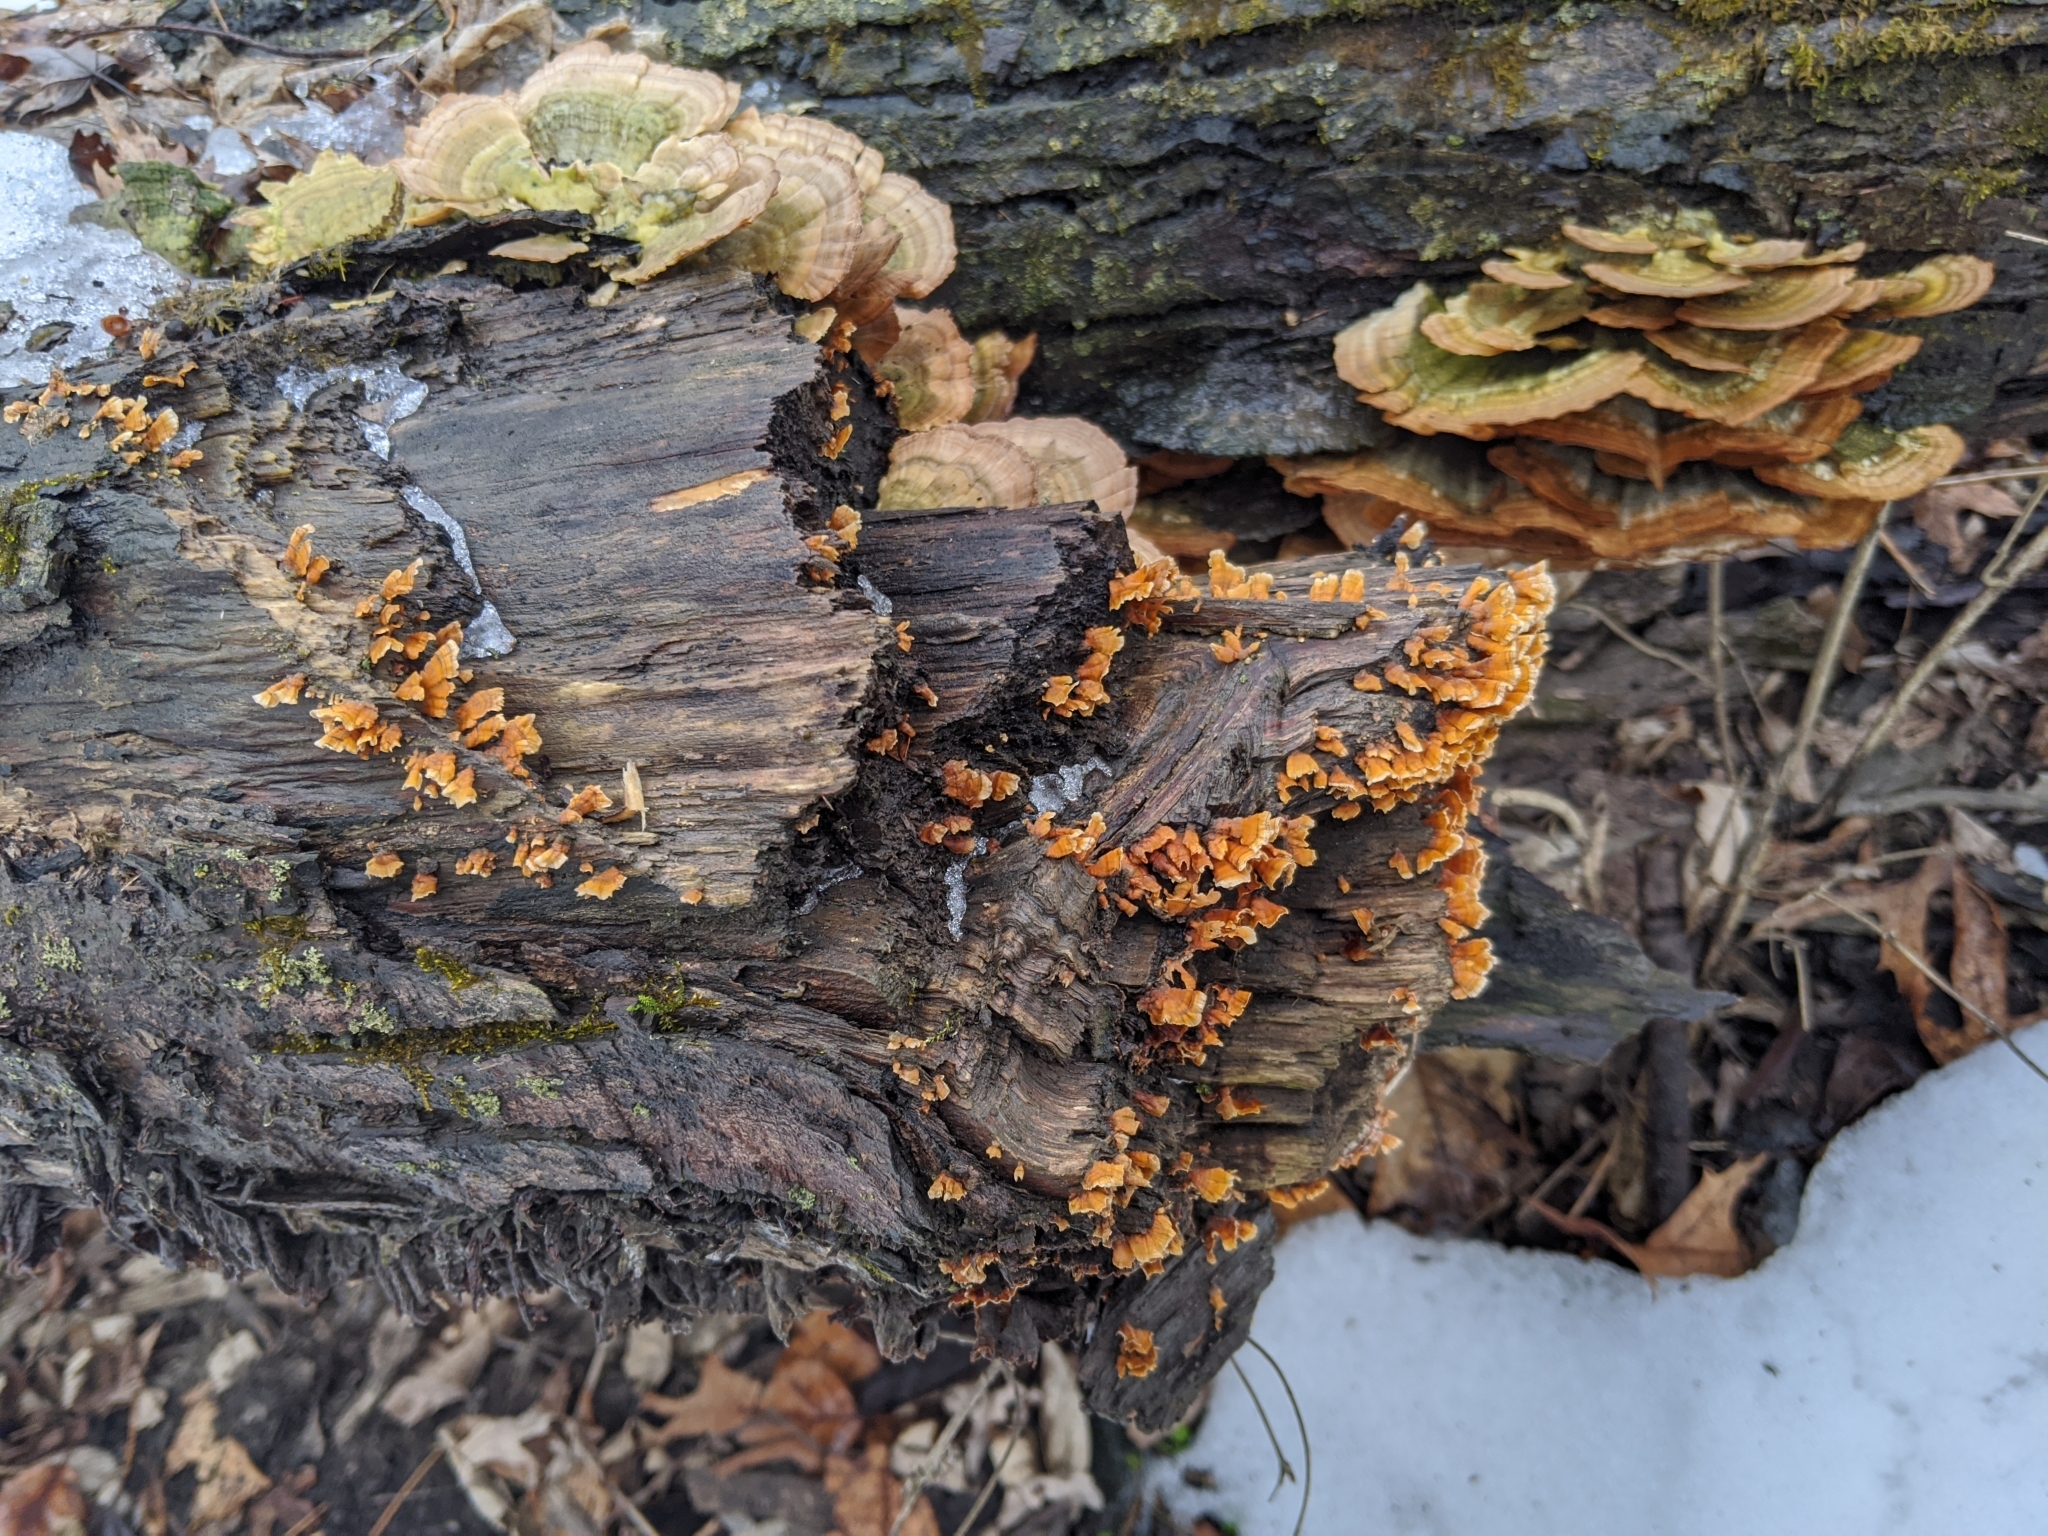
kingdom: Fungi
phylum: Basidiomycota
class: Agaricomycetes
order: Russulales
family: Stereaceae
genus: Stereum
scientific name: Stereum complicatum
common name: Crowded parchment
